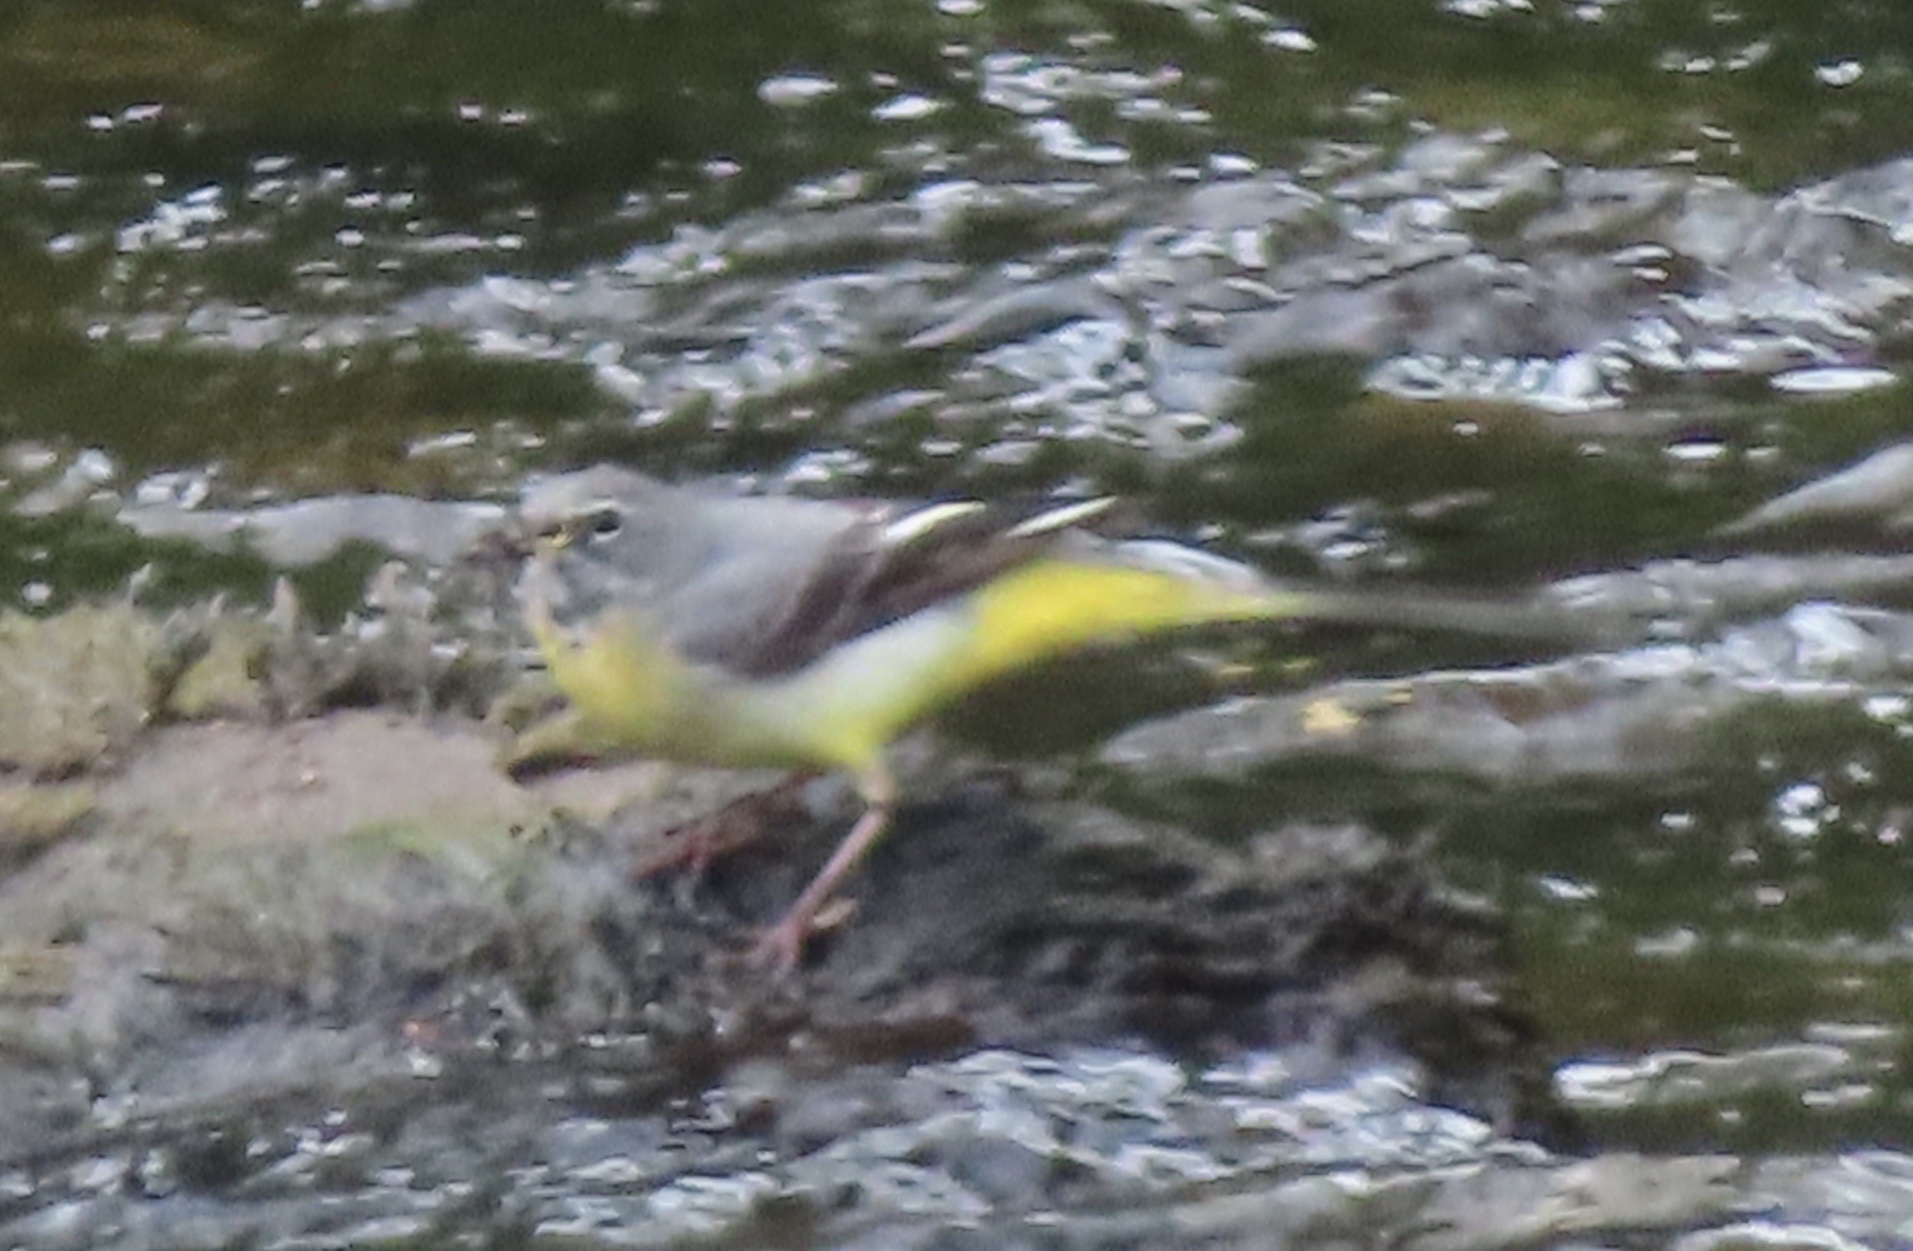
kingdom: Animalia
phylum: Chordata
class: Aves
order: Passeriformes
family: Motacillidae
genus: Motacilla
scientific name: Motacilla cinerea
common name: Grey wagtail
